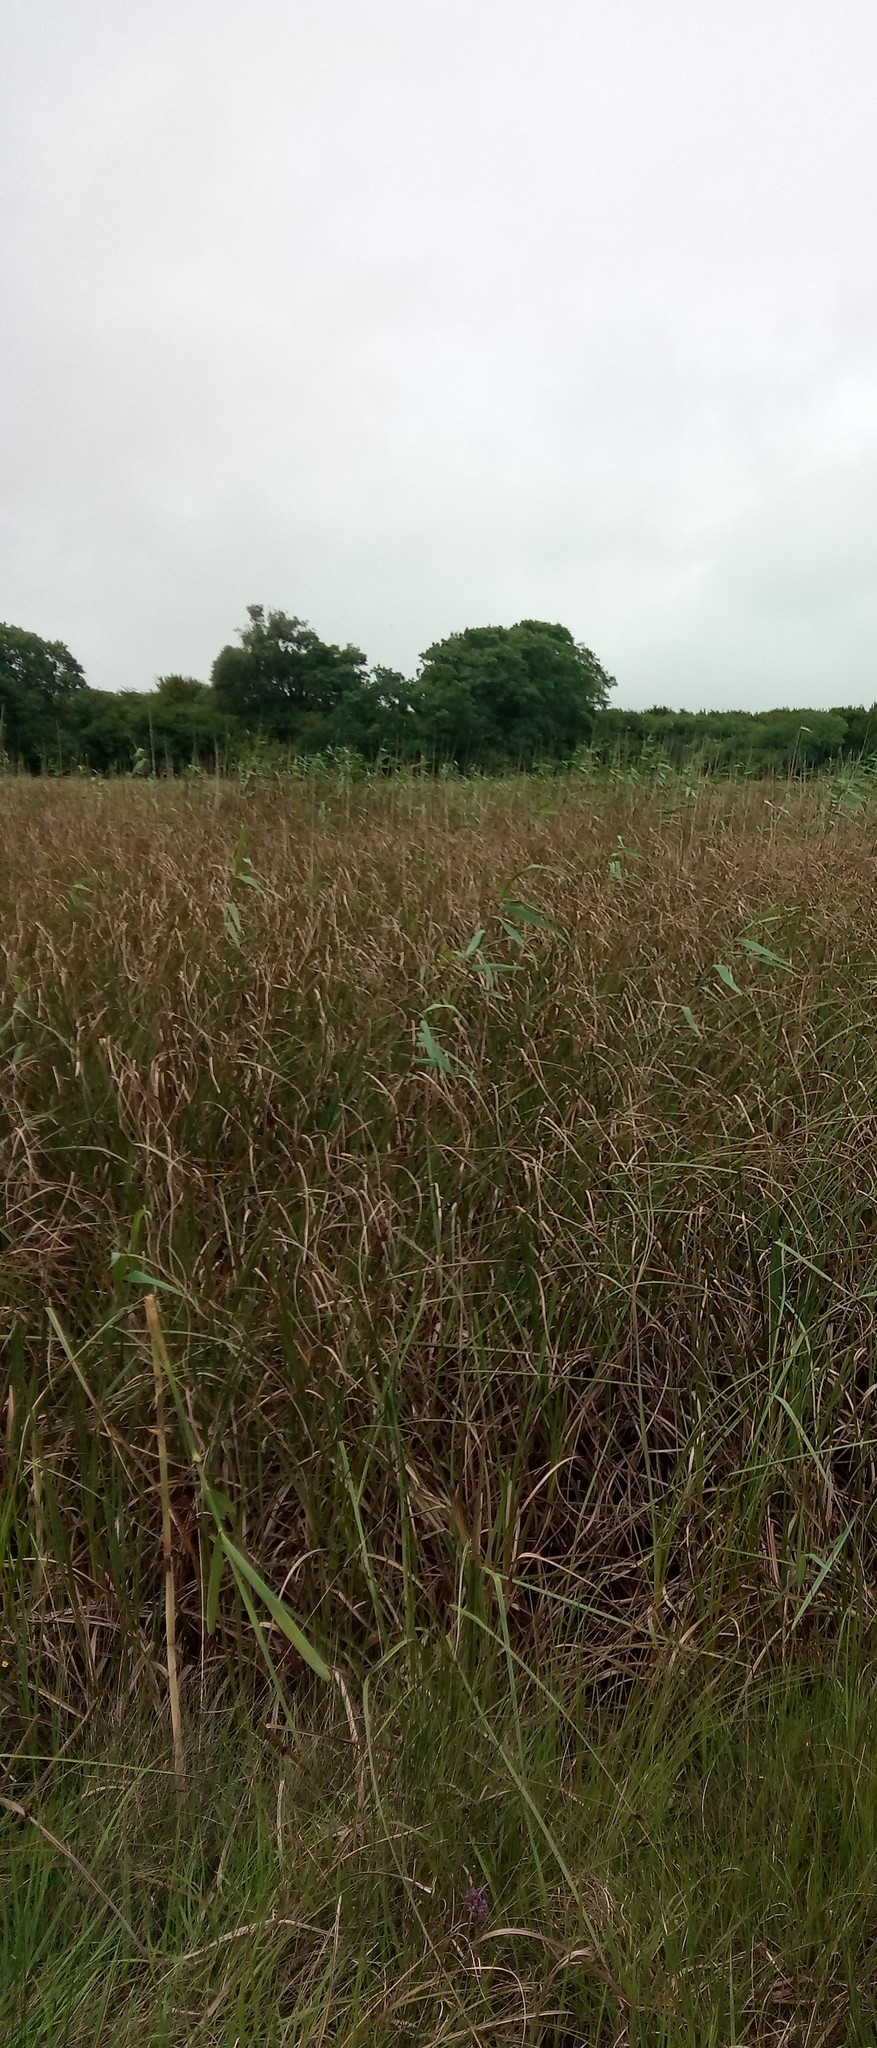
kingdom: Plantae
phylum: Tracheophyta
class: Liliopsida
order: Poales
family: Poaceae
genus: Phragmites
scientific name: Phragmites australis
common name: Common reed
